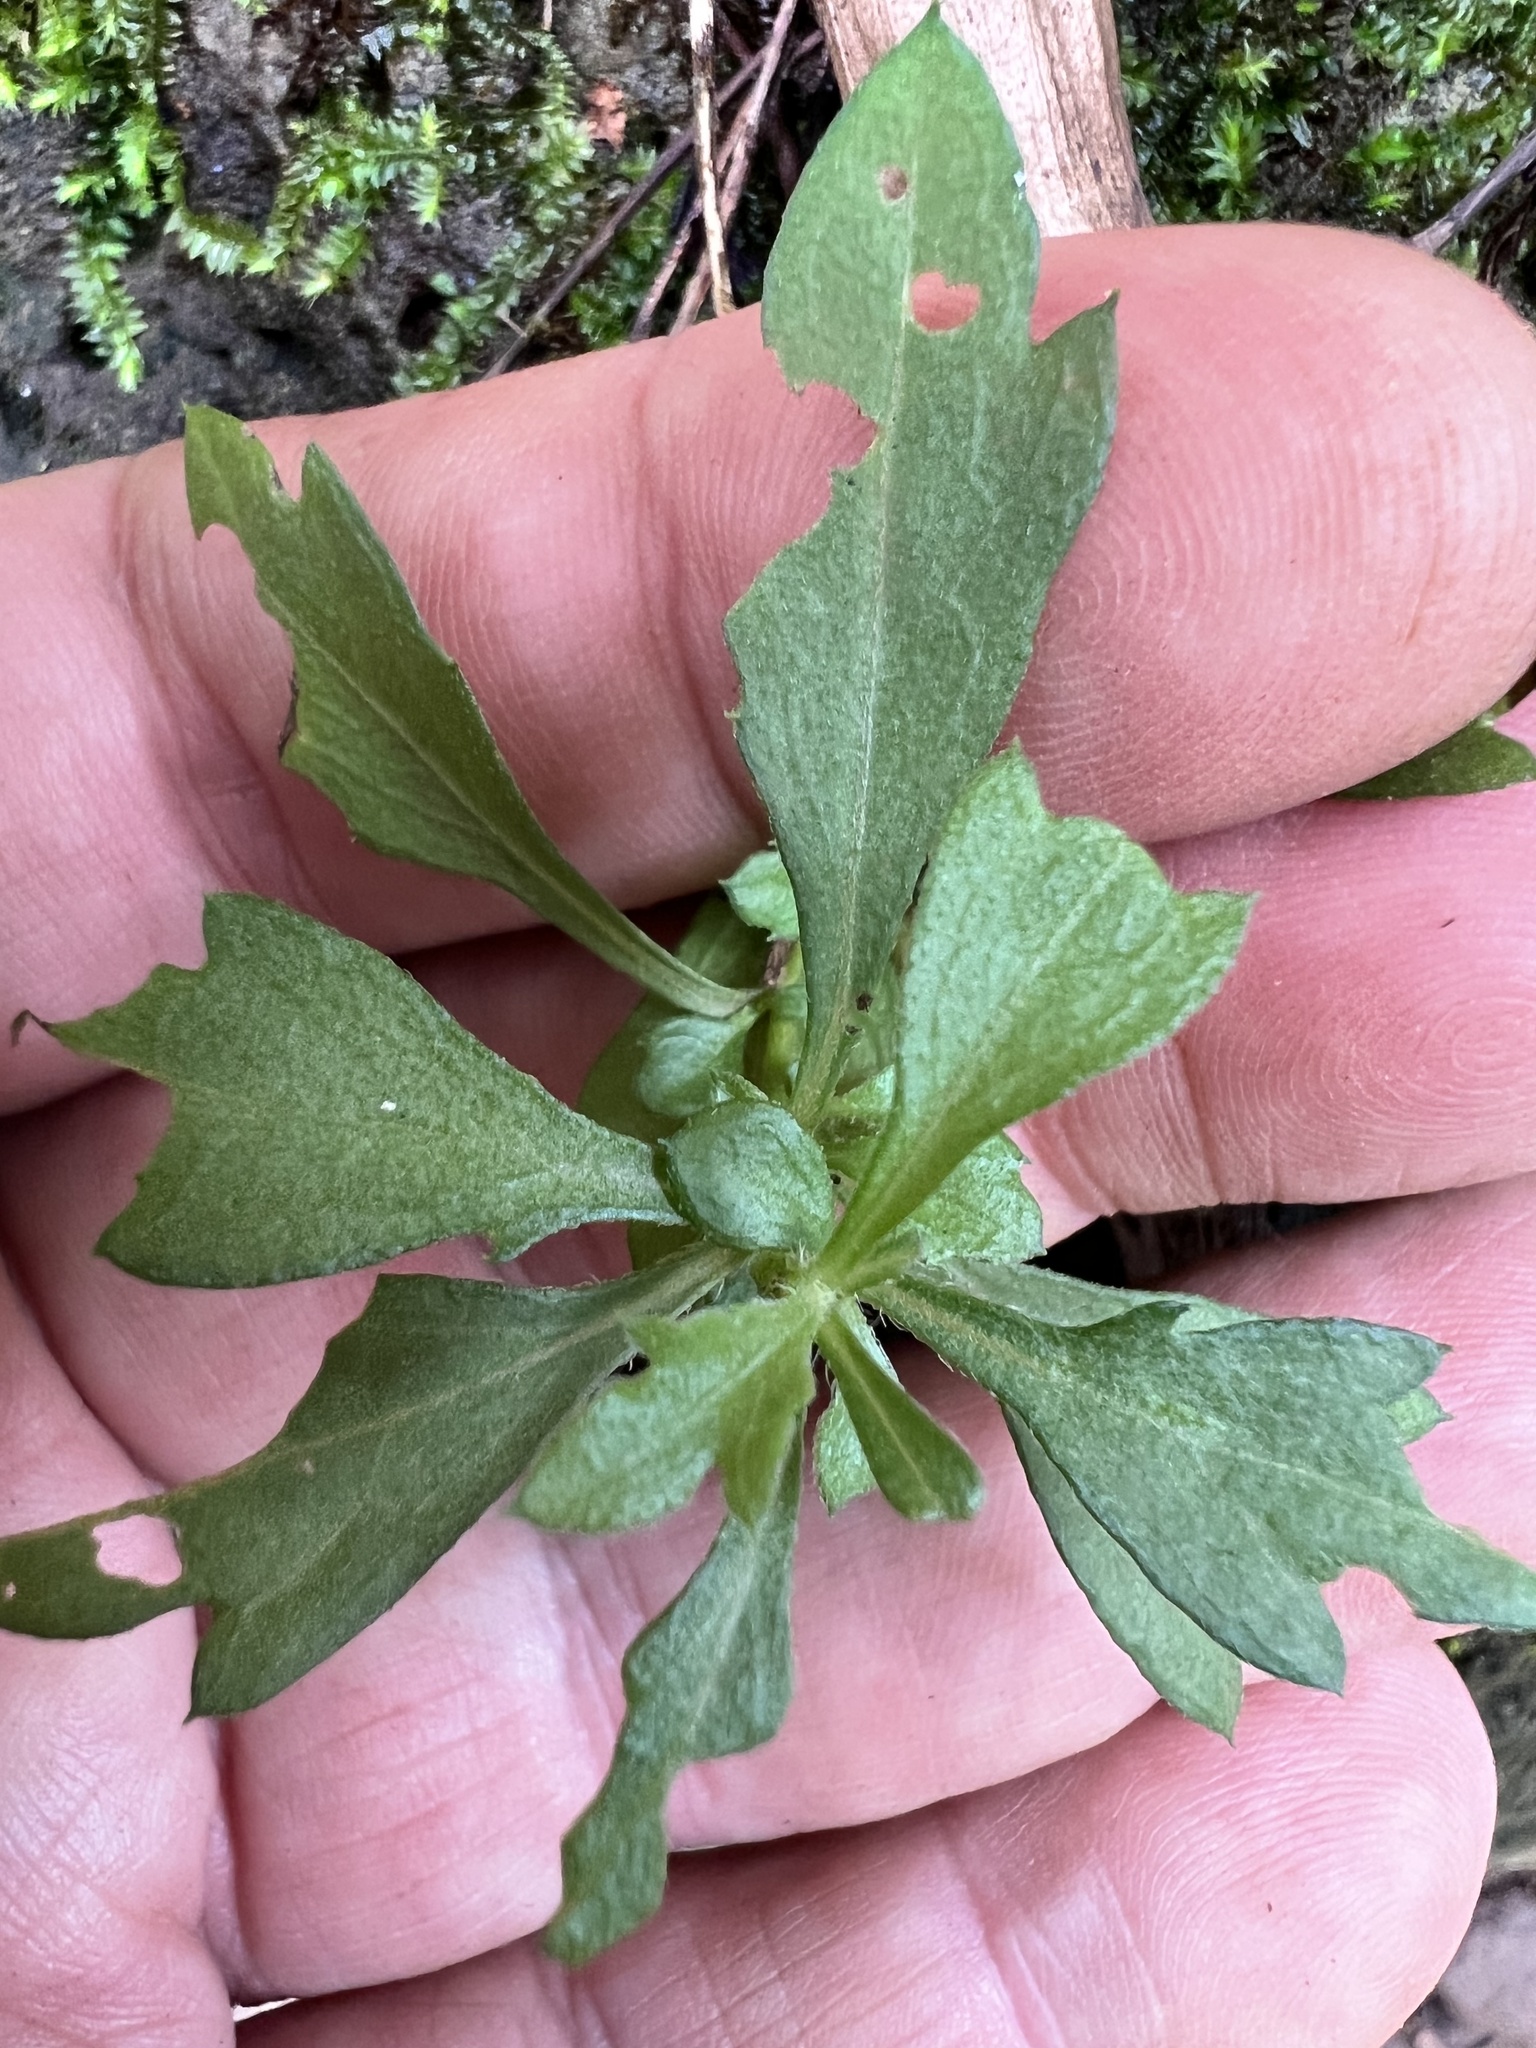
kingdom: Plantae
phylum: Tracheophyta
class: Magnoliopsida
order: Asterales
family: Asteraceae
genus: Erigeron
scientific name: Erigeron karvinskianus
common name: Mexican fleabane
